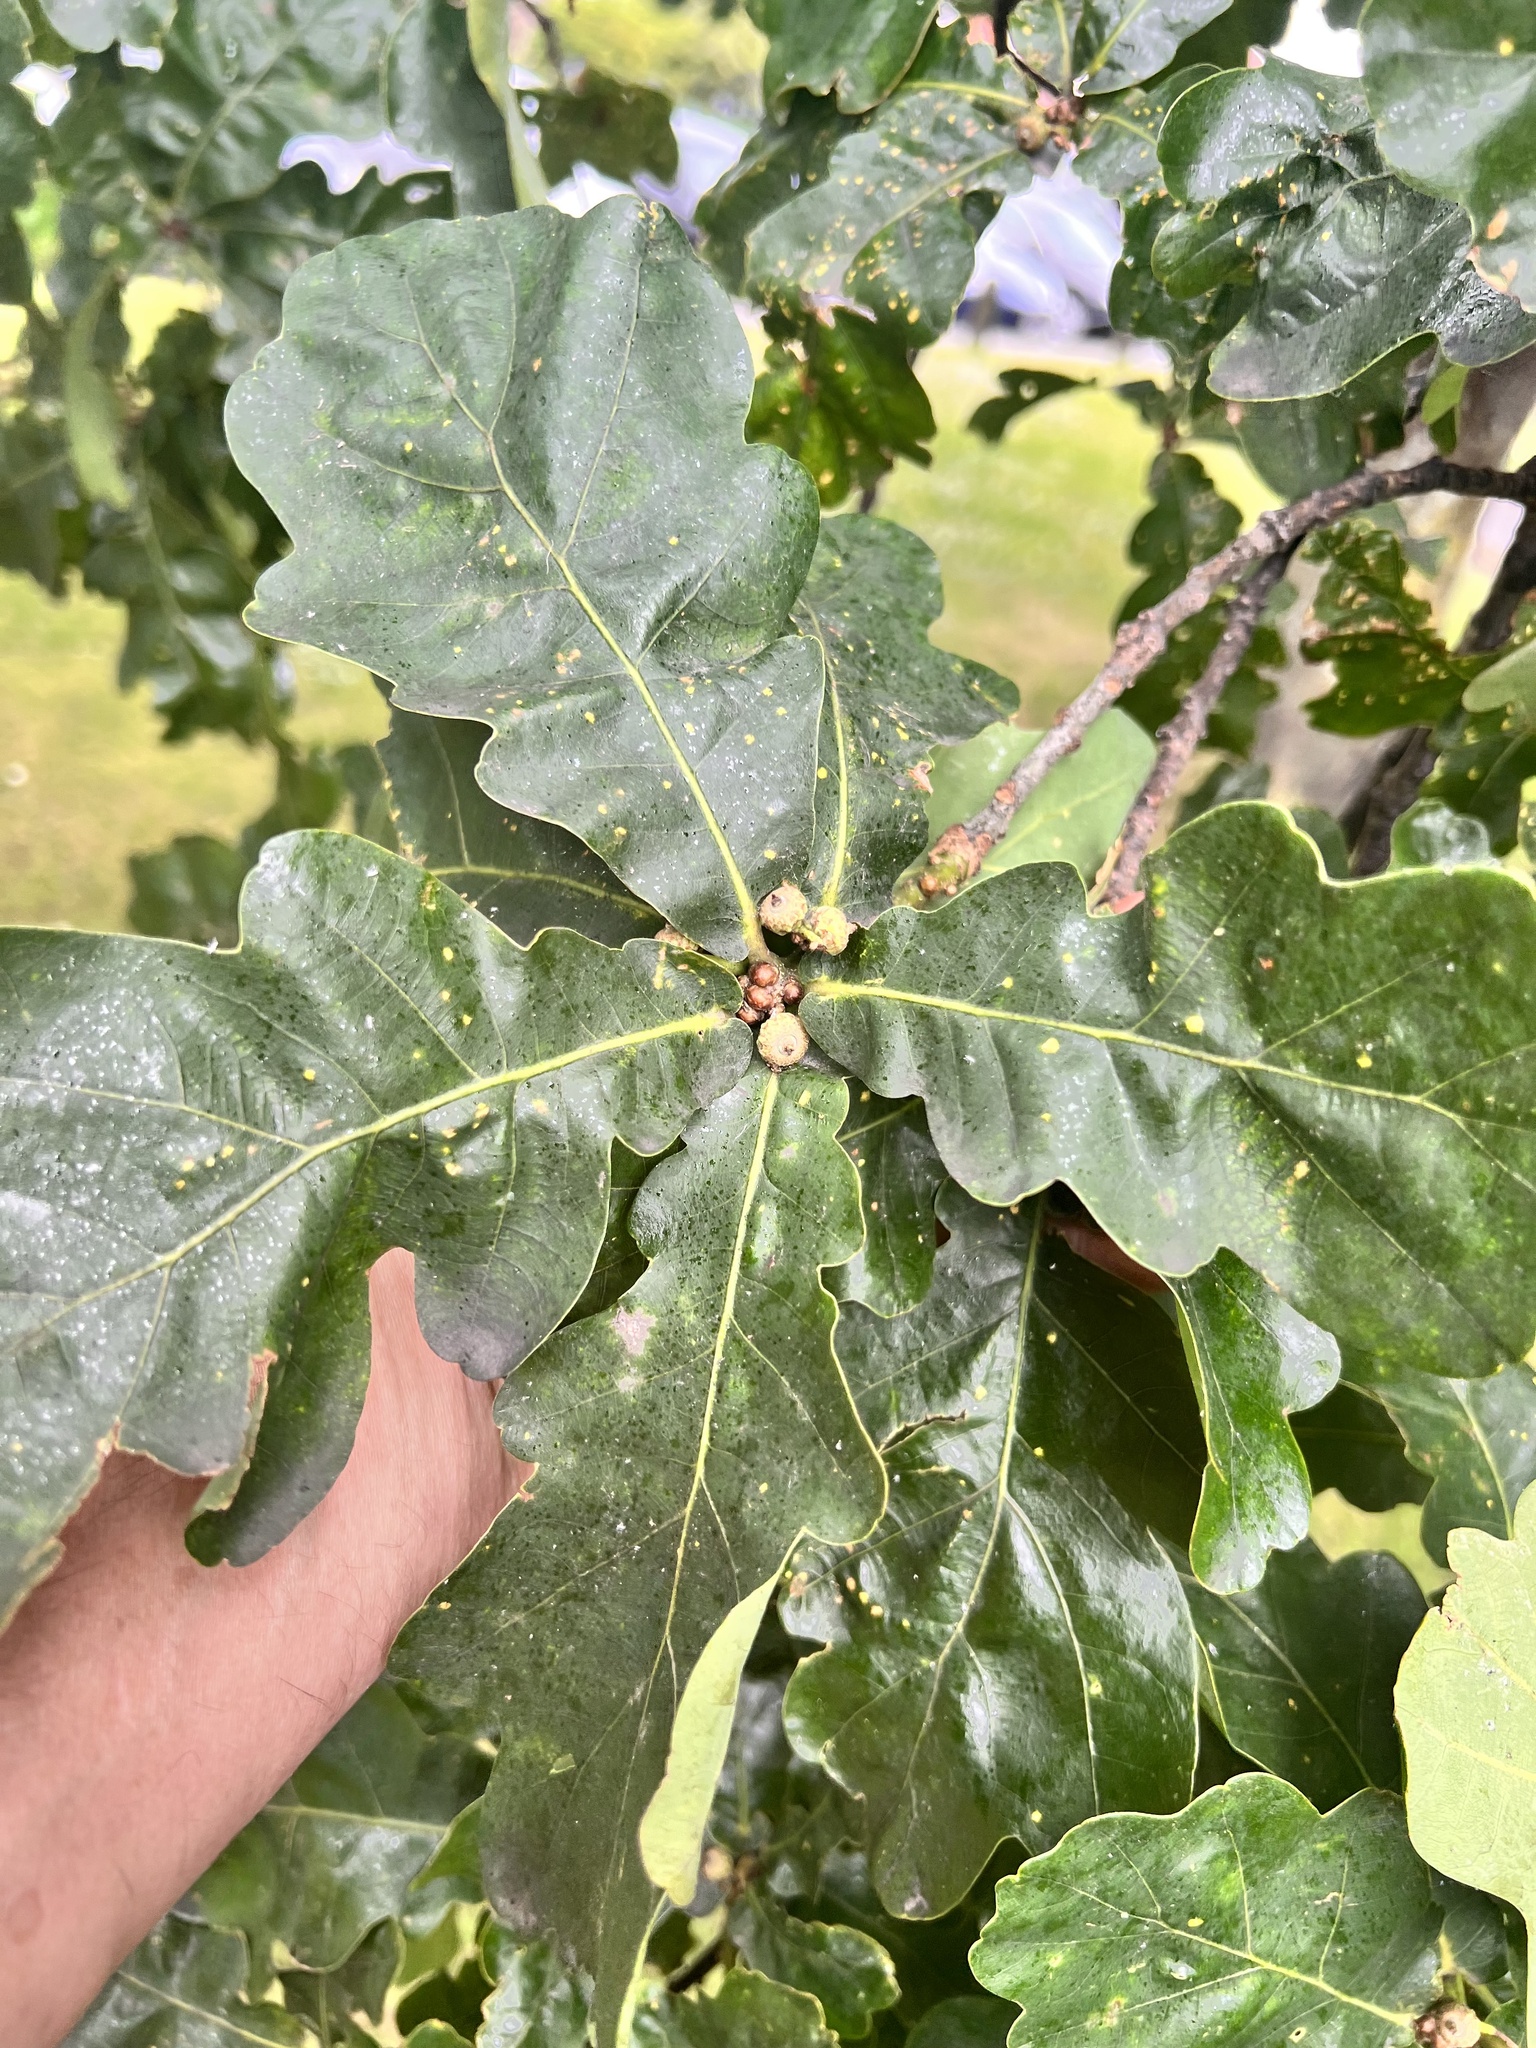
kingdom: Plantae
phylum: Tracheophyta
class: Magnoliopsida
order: Fagales
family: Fagaceae
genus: Quercus
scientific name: Quercus robur
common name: Pedunculate oak
